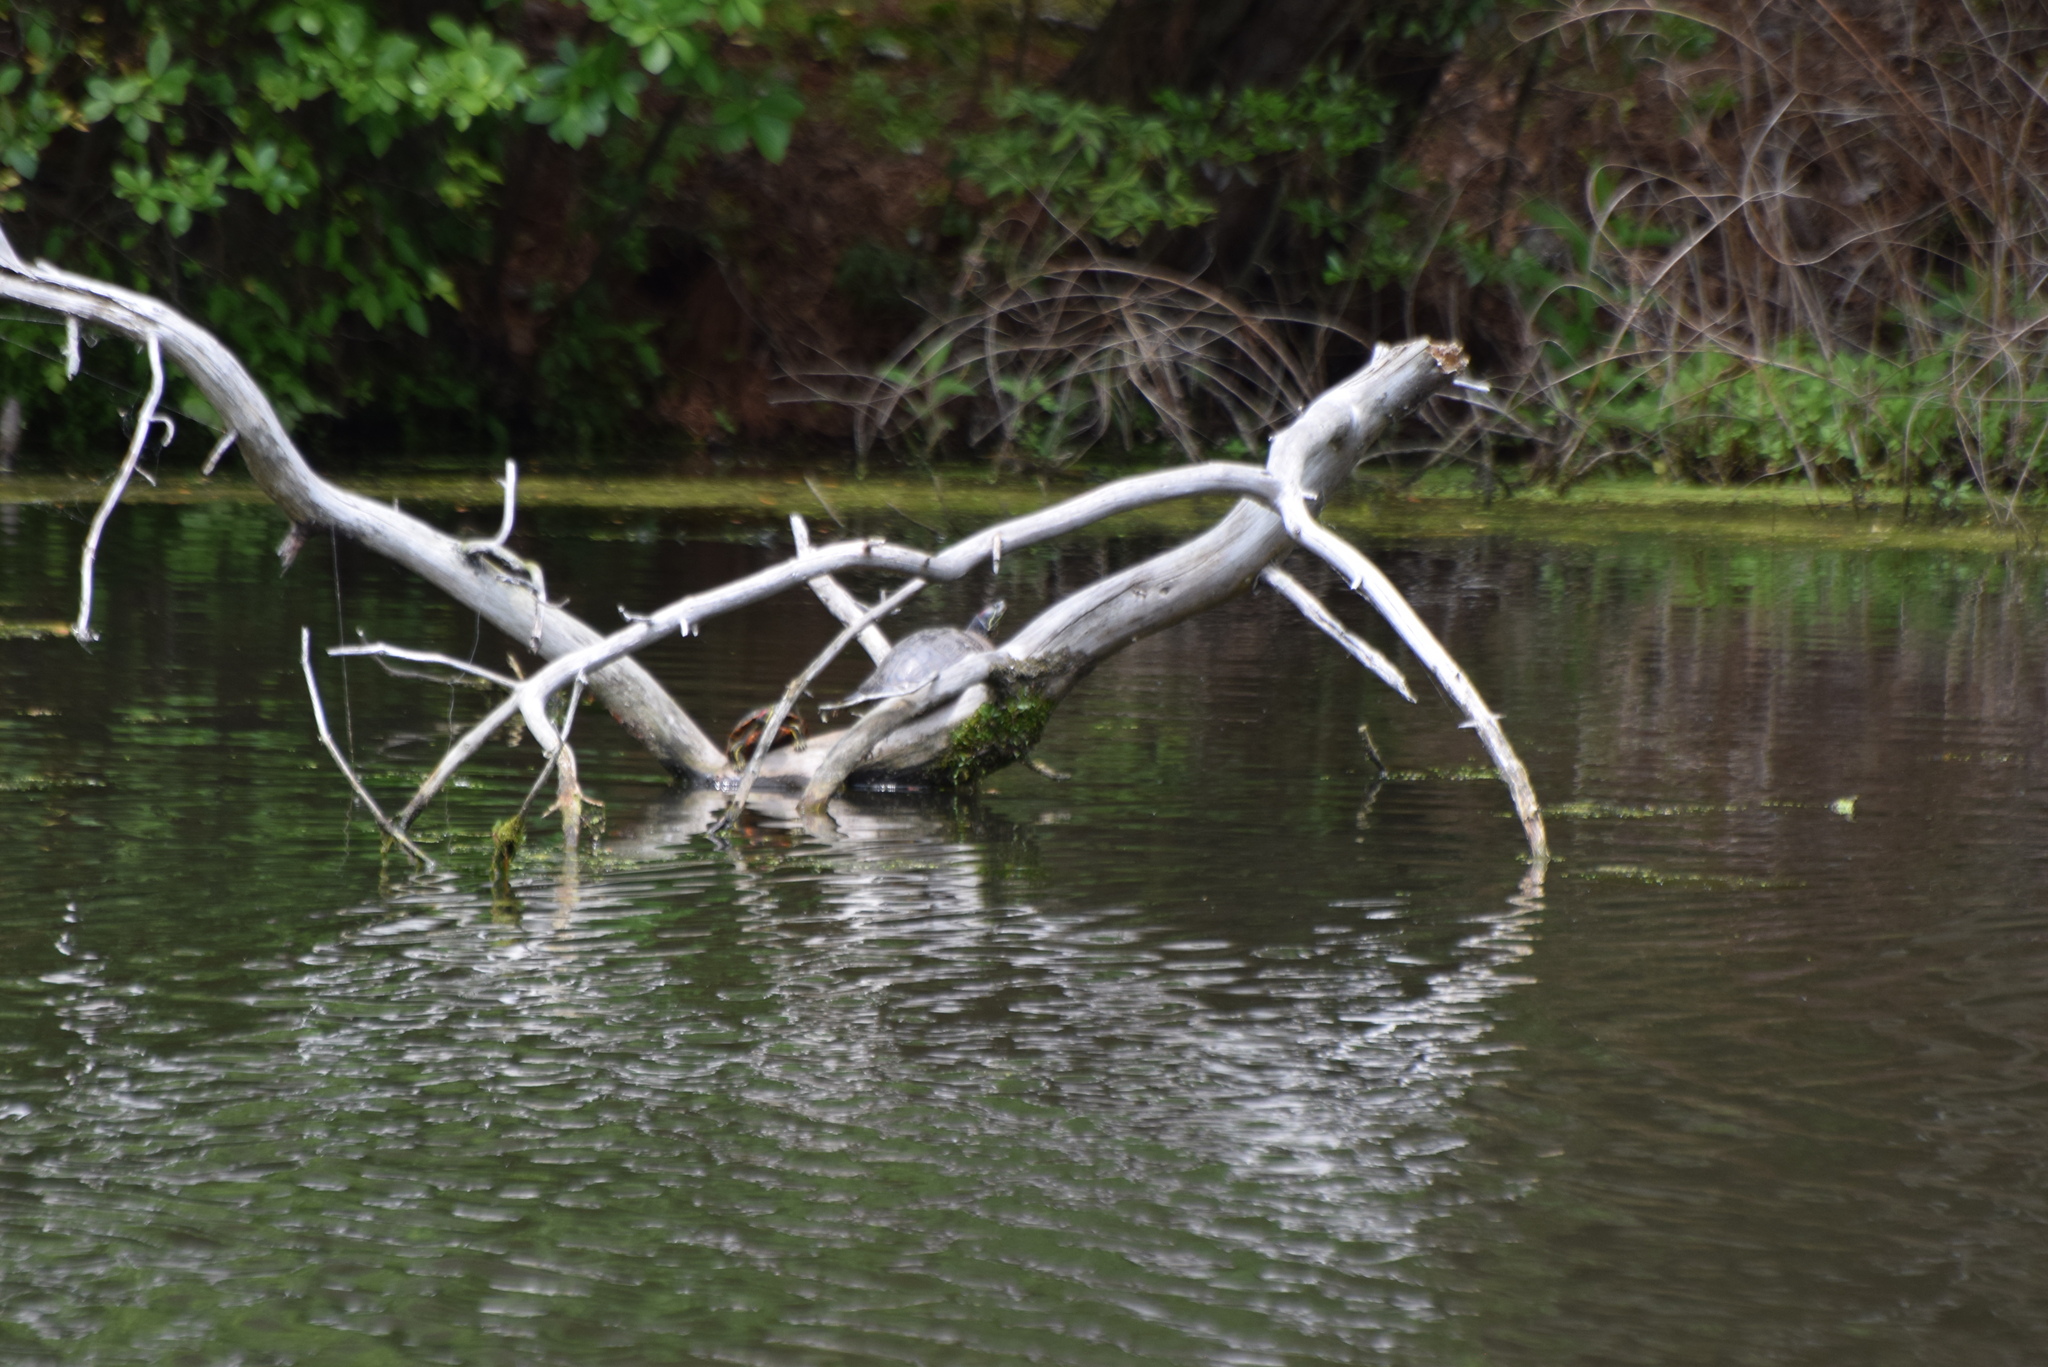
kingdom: Animalia
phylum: Chordata
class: Testudines
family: Emydidae
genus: Trachemys
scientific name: Trachemys scripta
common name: Slider
